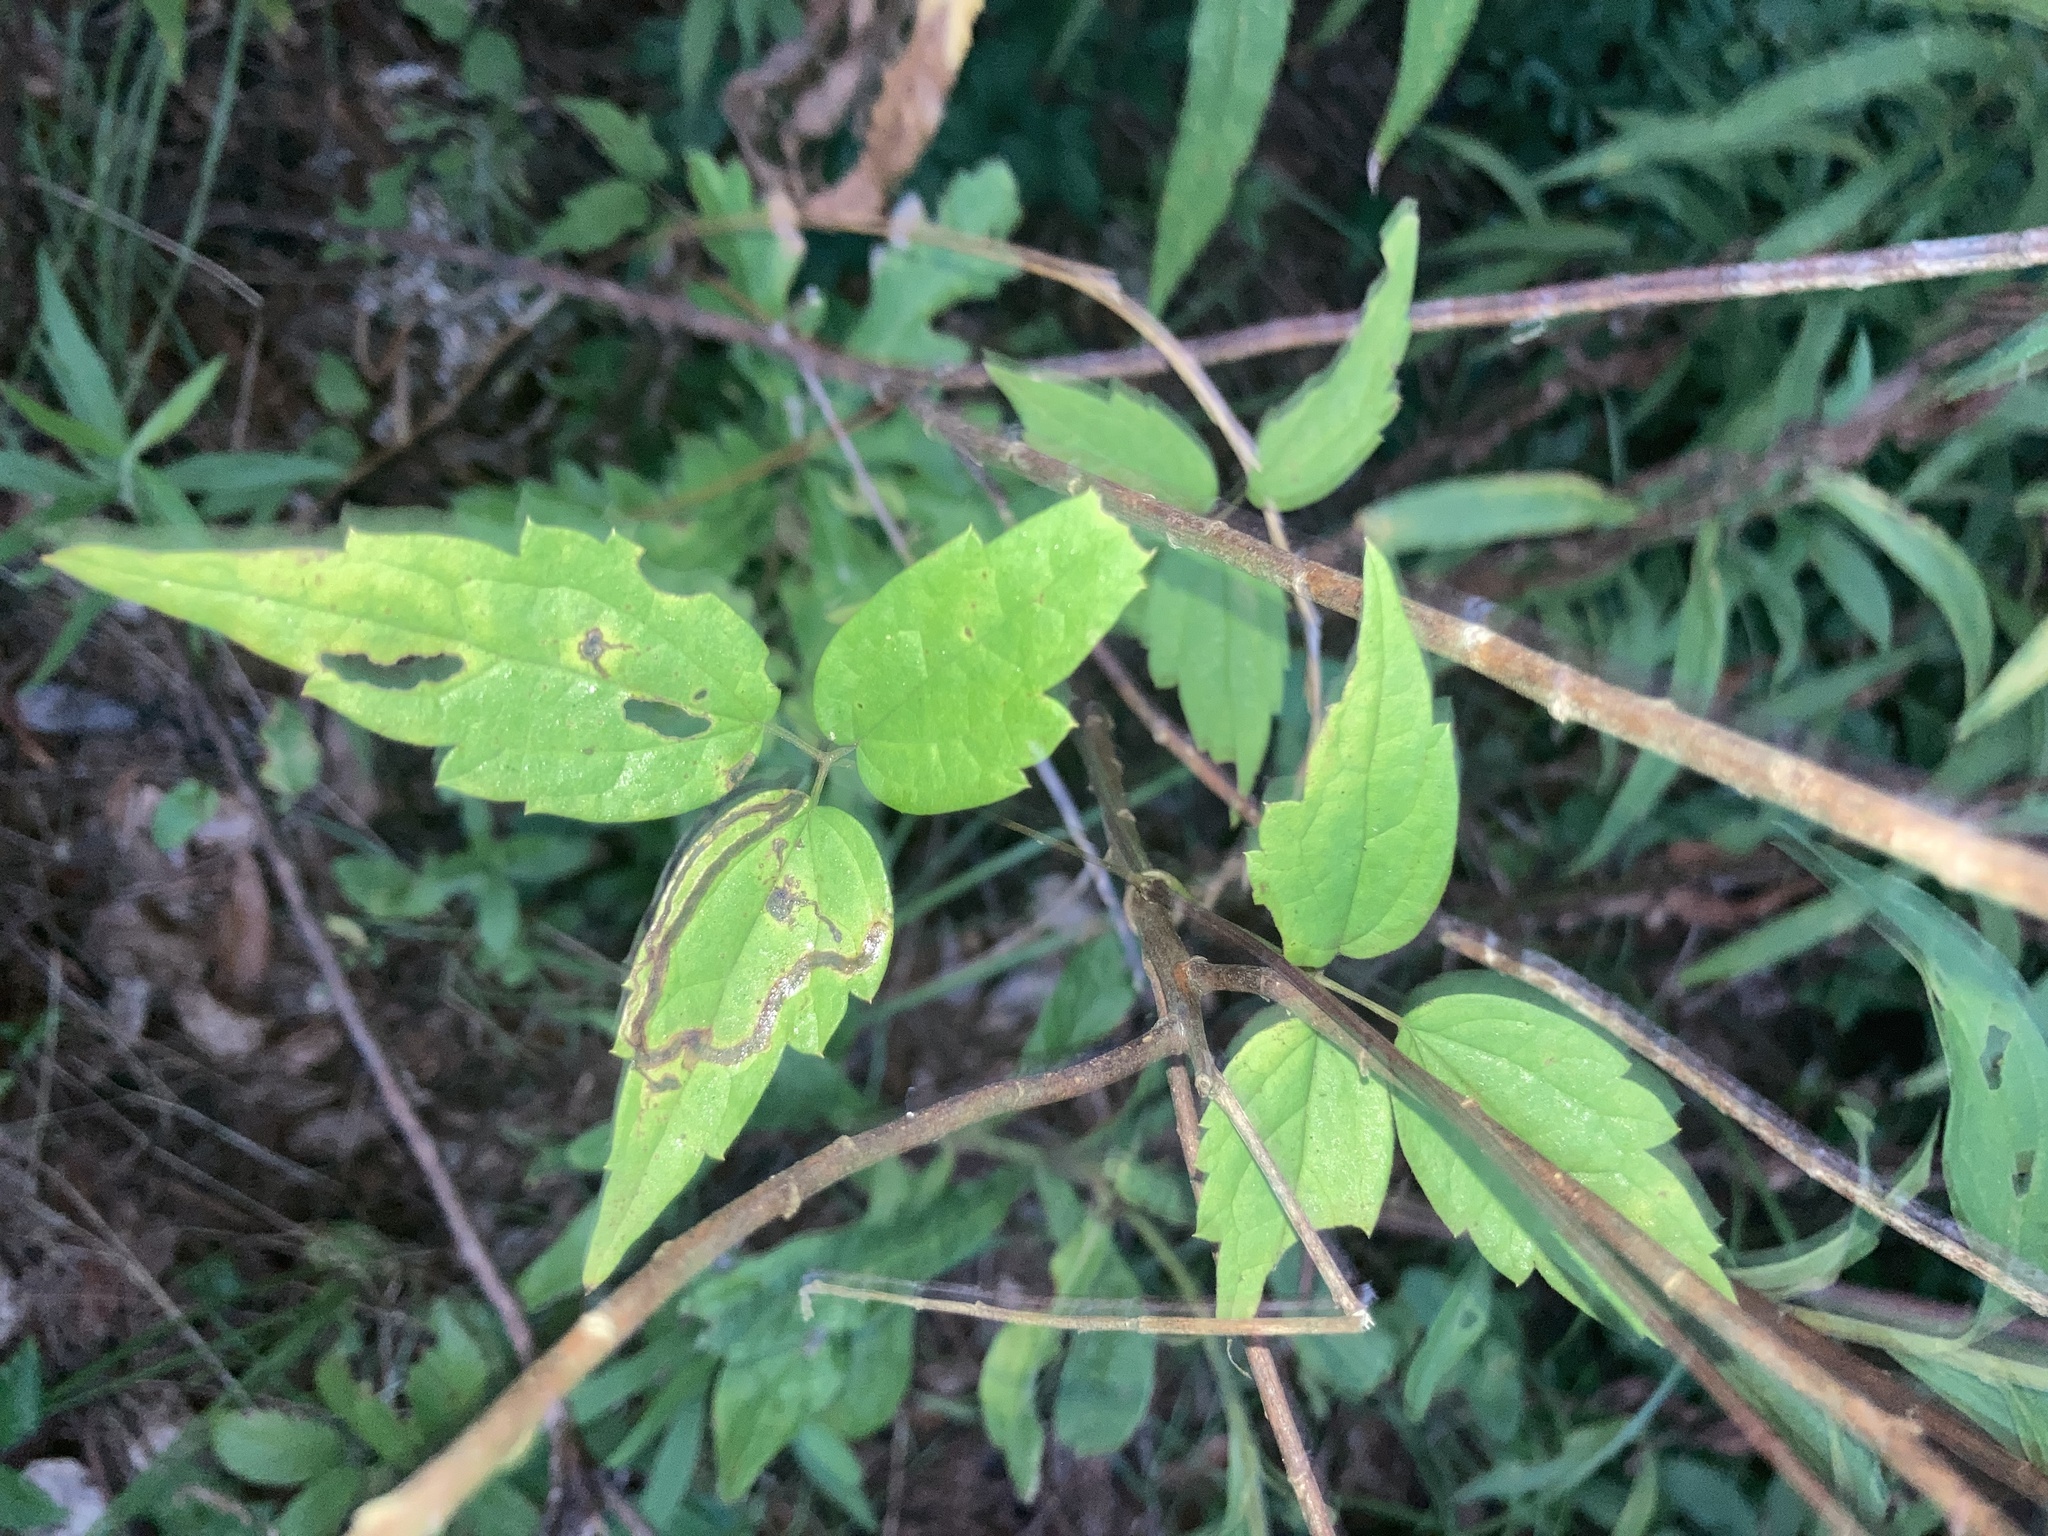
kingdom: Plantae
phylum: Tracheophyta
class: Magnoliopsida
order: Ranunculales
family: Ranunculaceae
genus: Clematis
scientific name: Clematis virginiana
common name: Virgin's-bower
